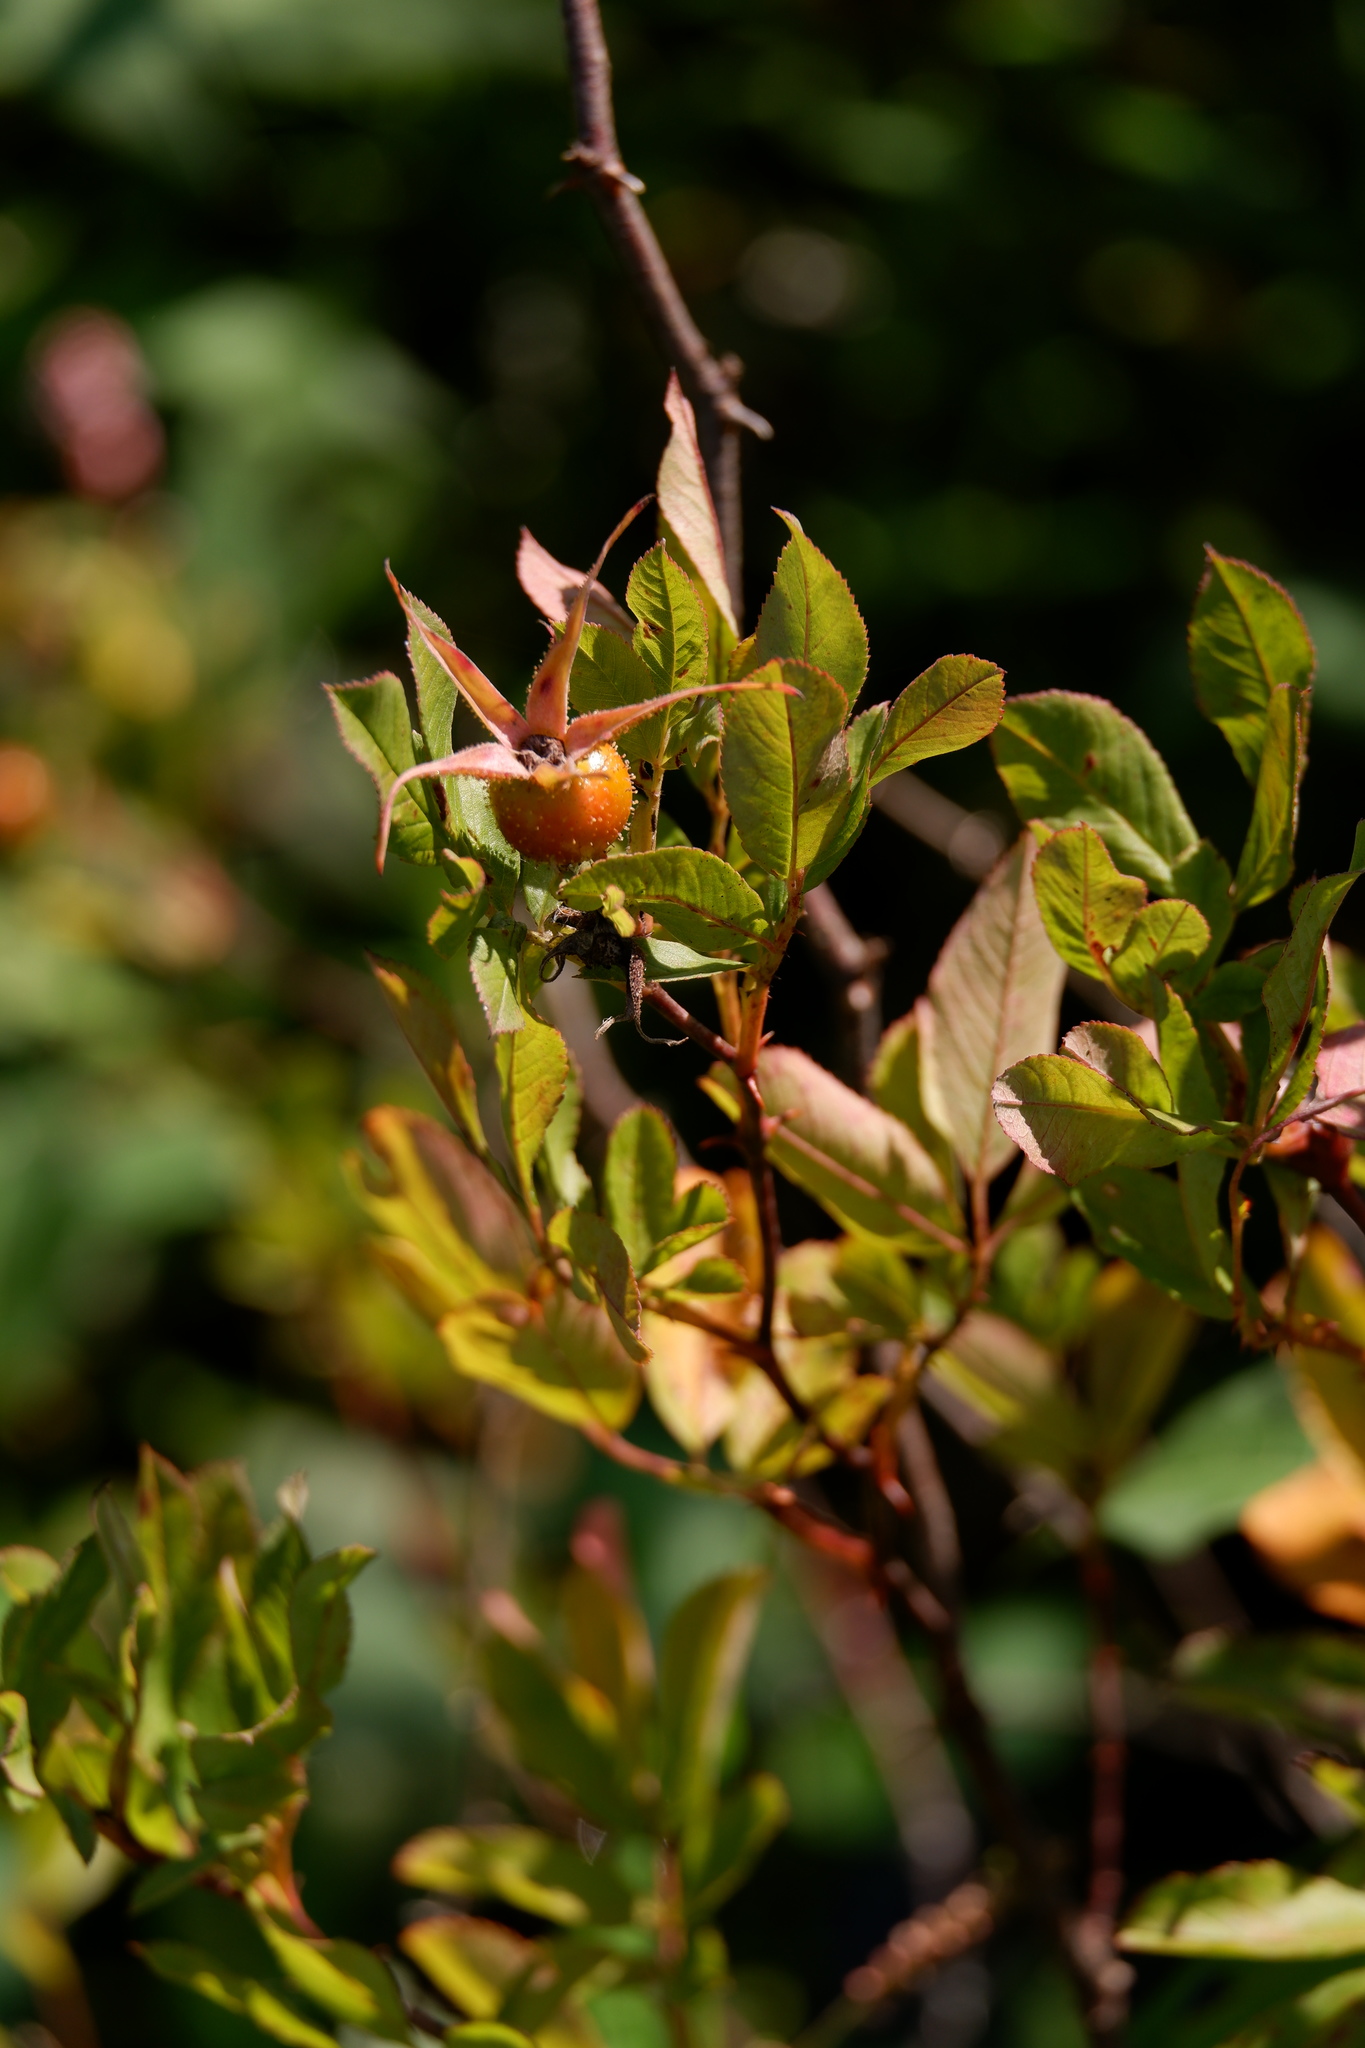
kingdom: Plantae
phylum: Tracheophyta
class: Magnoliopsida
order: Rosales
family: Rosaceae
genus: Rosa
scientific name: Rosa palustris
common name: Swamp rose
